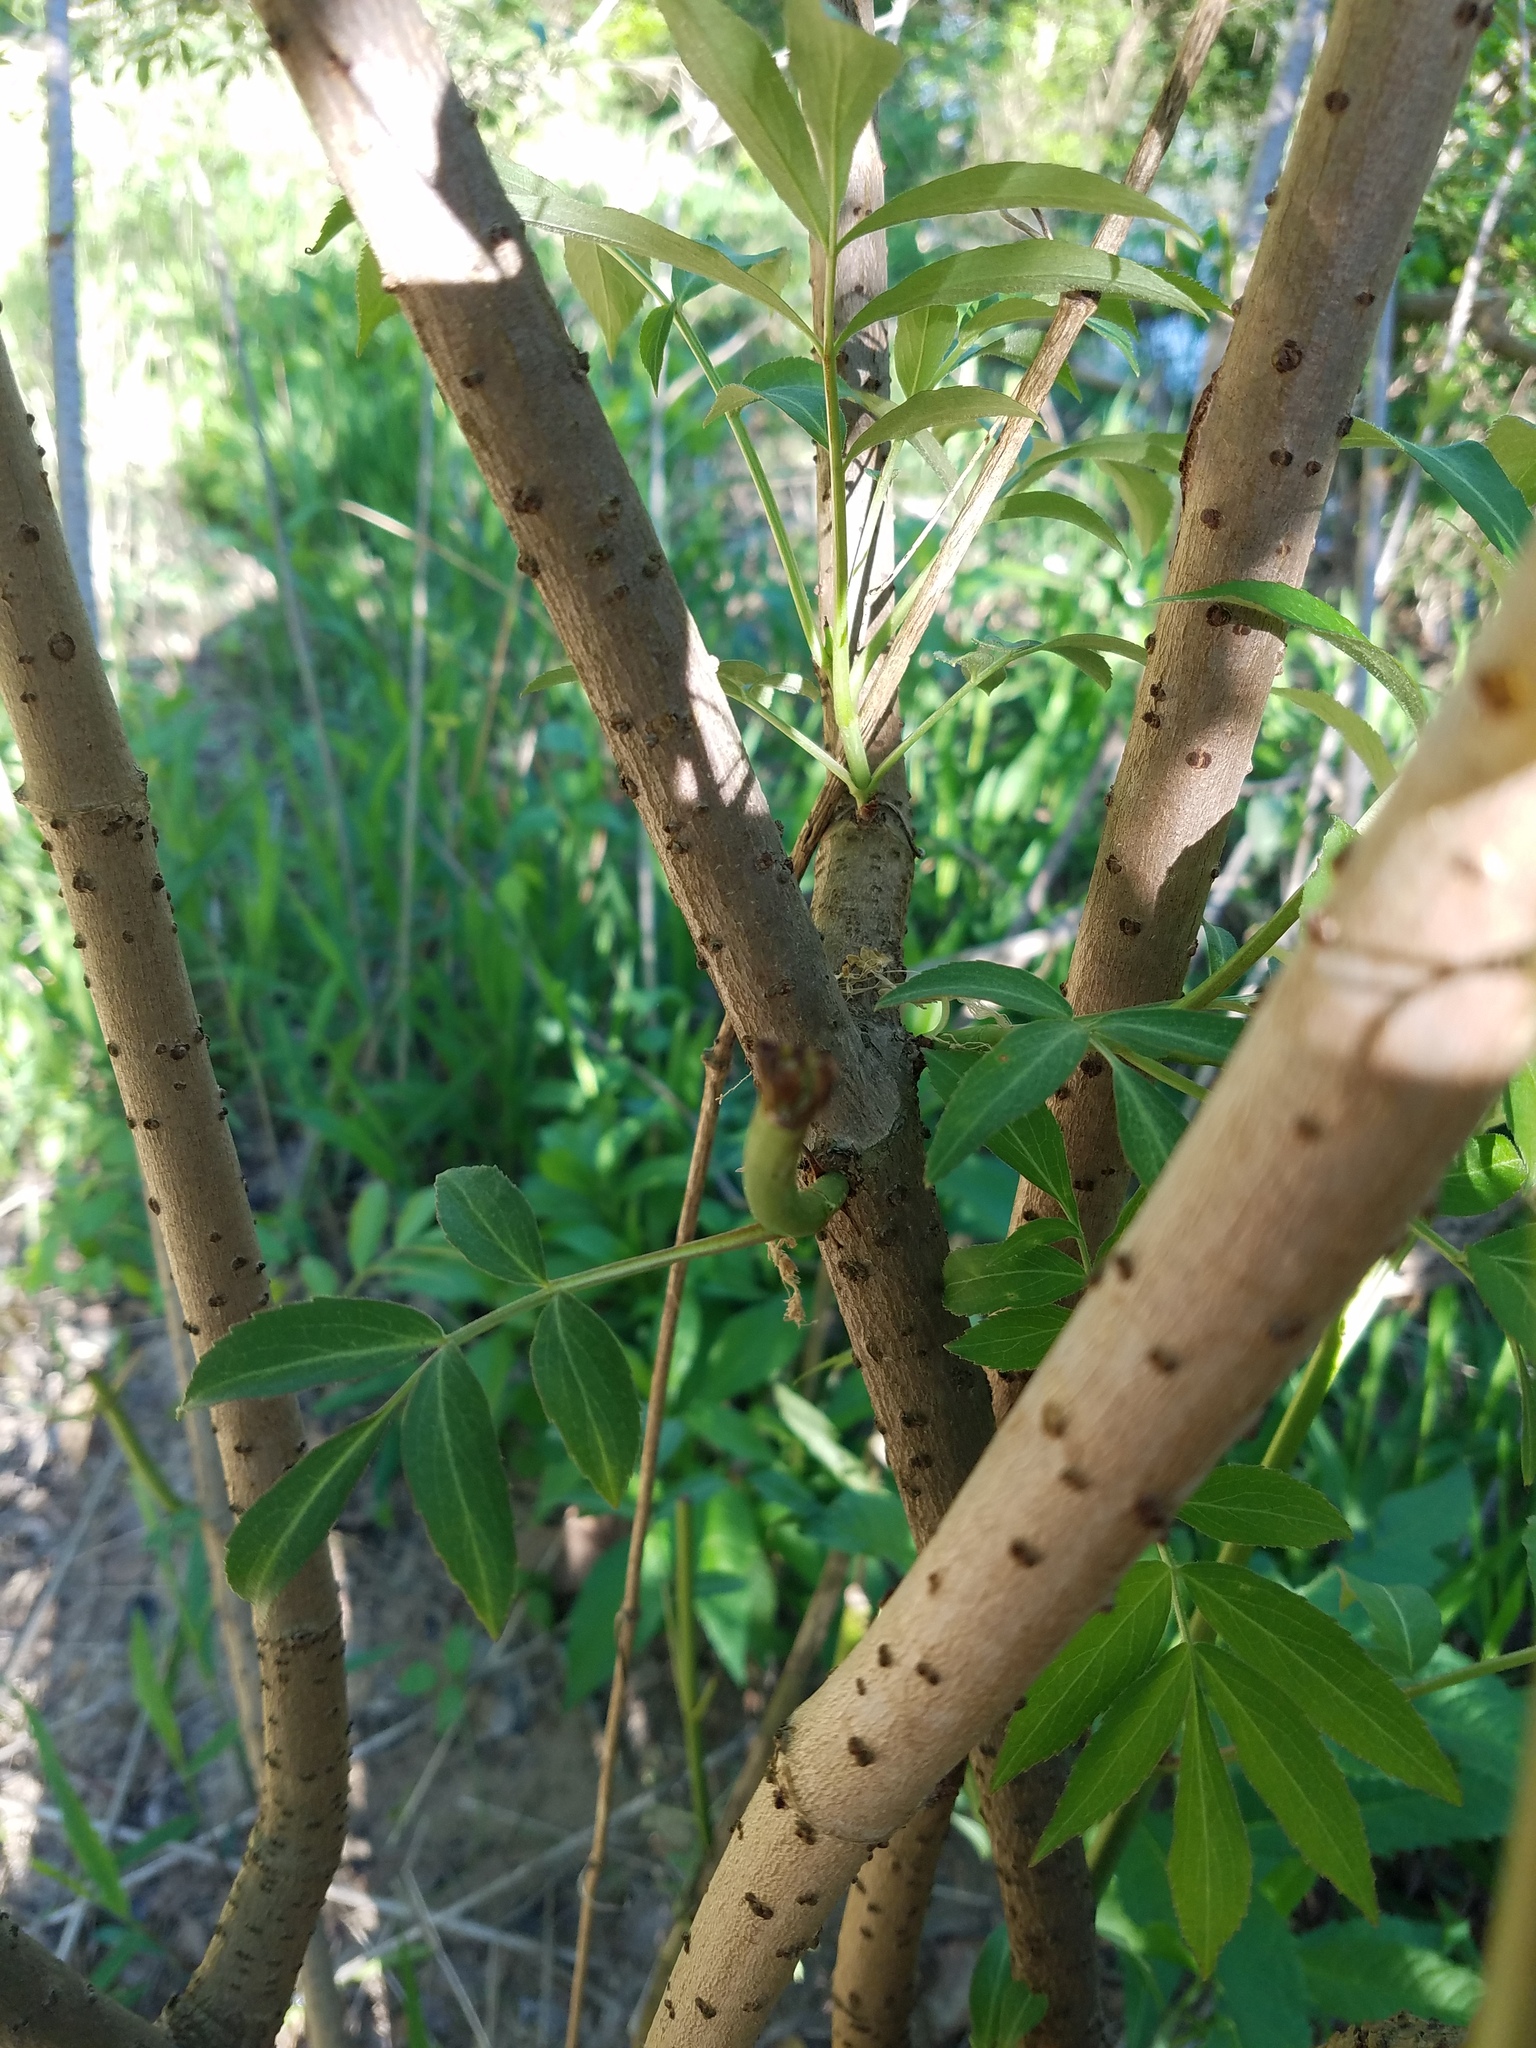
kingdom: Plantae
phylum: Tracheophyta
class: Magnoliopsida
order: Dipsacales
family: Viburnaceae
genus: Sambucus
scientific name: Sambucus canadensis
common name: American elder
